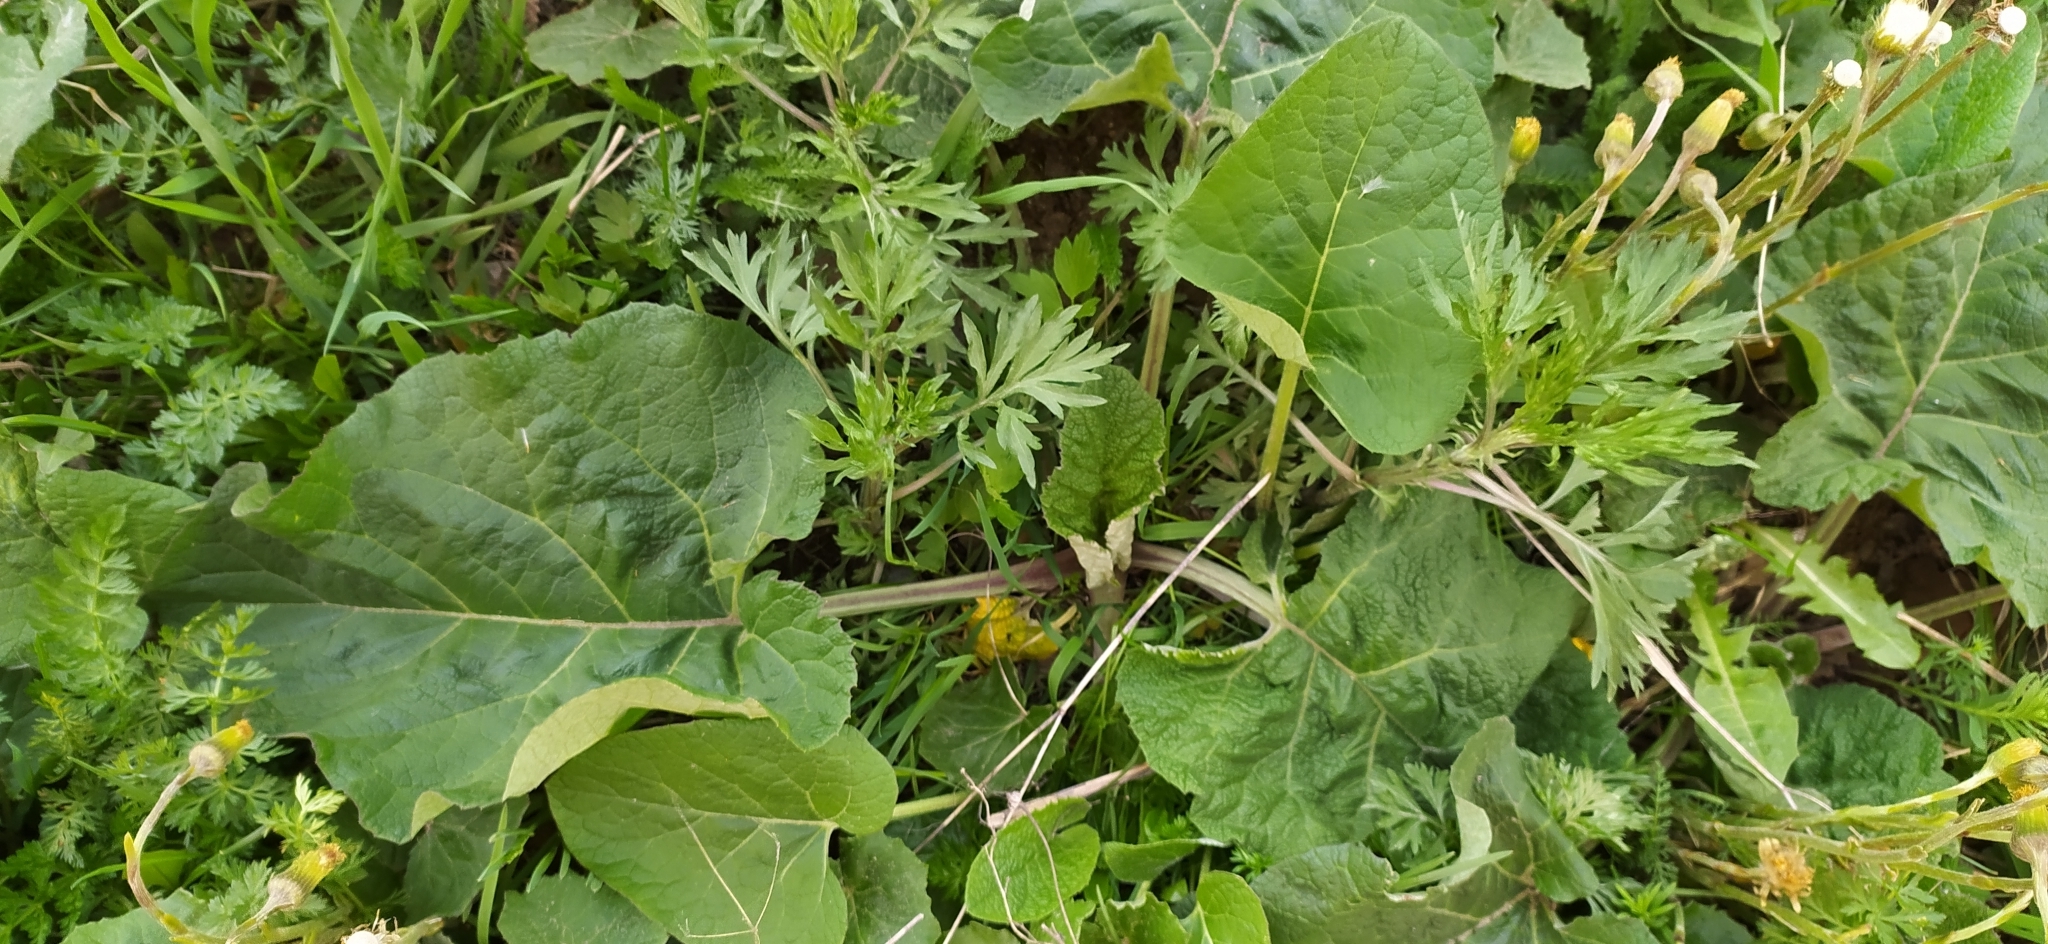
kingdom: Plantae
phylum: Tracheophyta
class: Magnoliopsida
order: Asterales
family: Asteraceae
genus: Arctium
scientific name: Arctium tomentosum
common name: Woolly burdock
